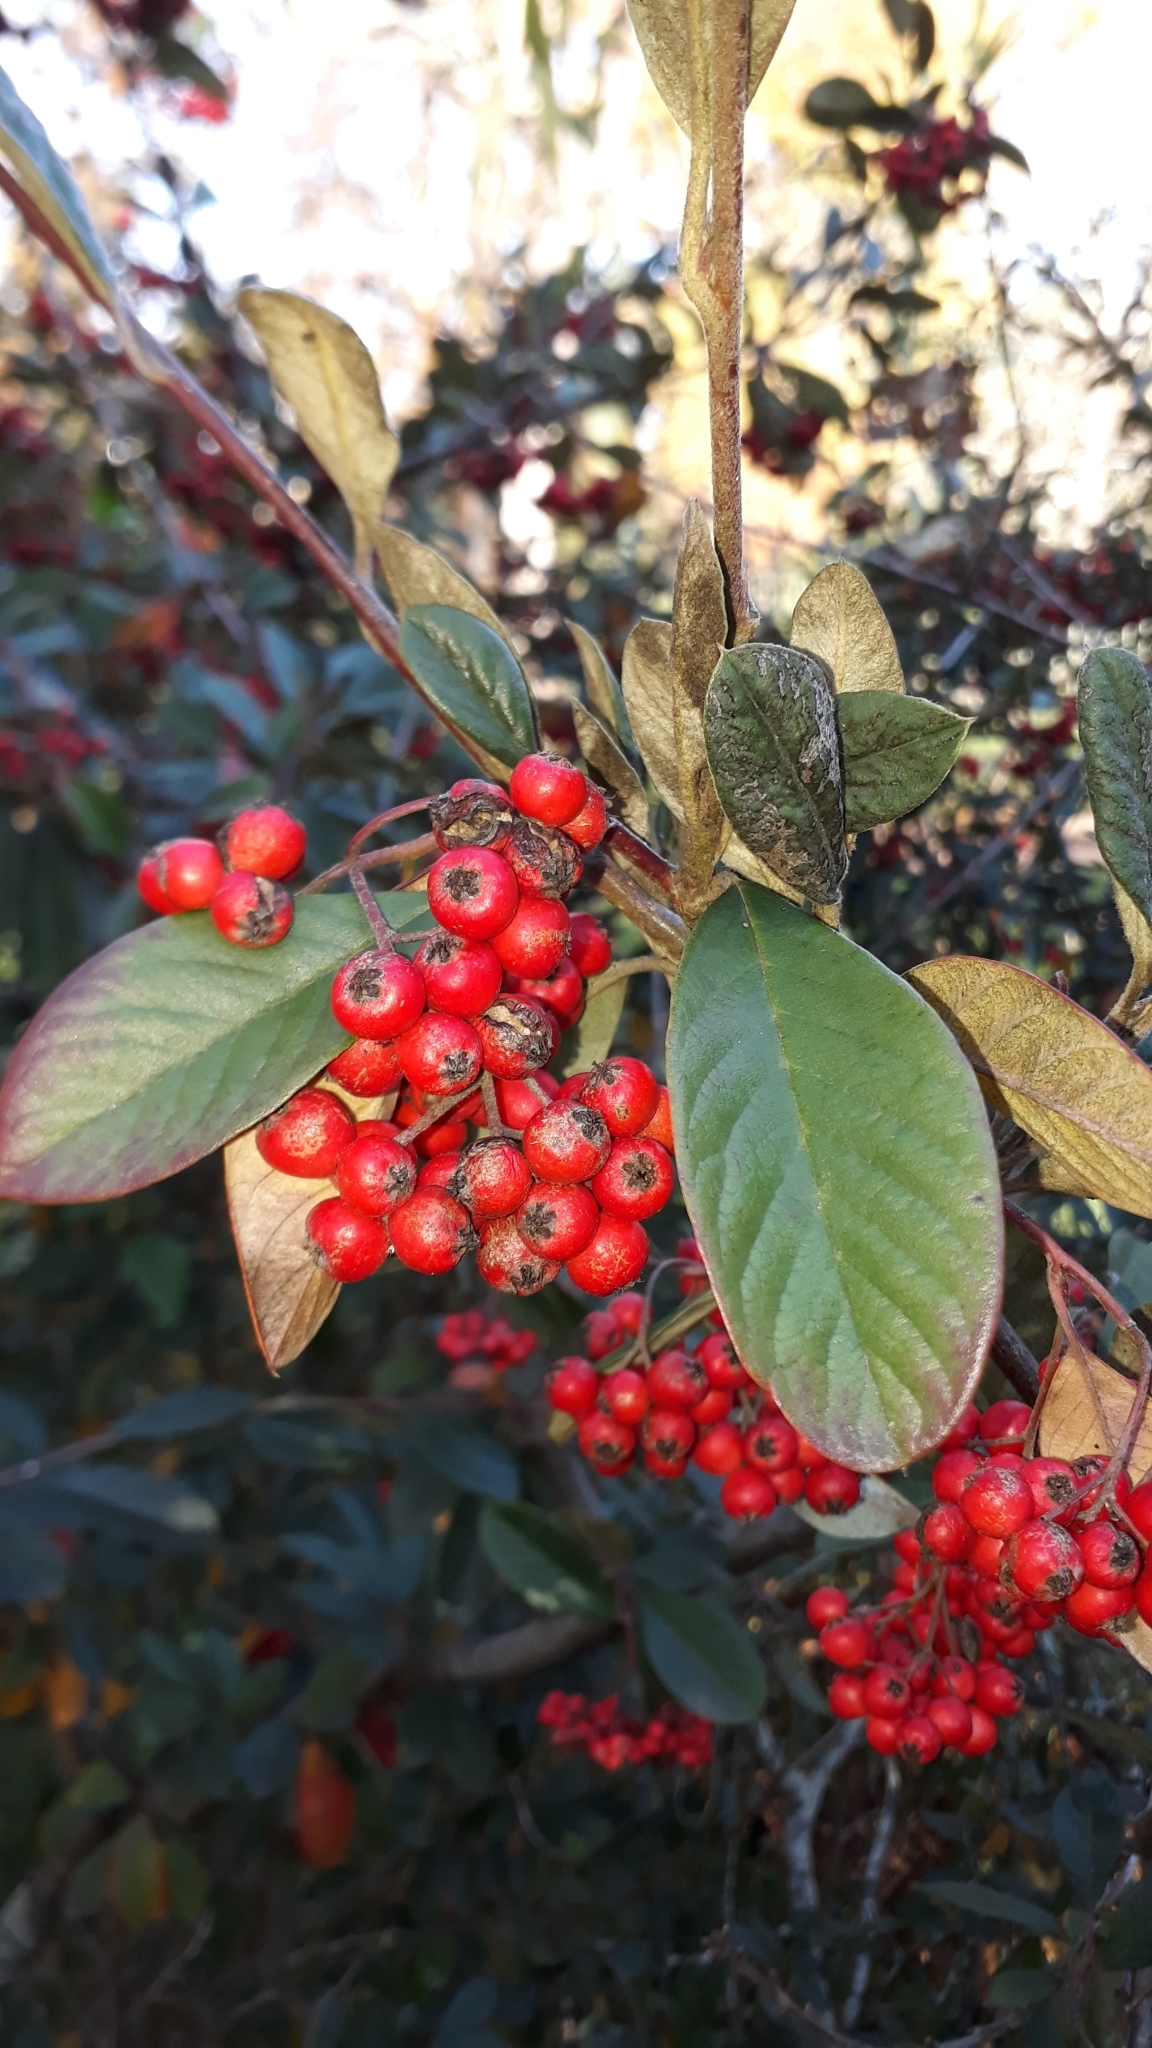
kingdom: Plantae
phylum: Tracheophyta
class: Magnoliopsida
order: Rosales
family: Rosaceae
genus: Cotoneaster
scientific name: Cotoneaster coriaceus
